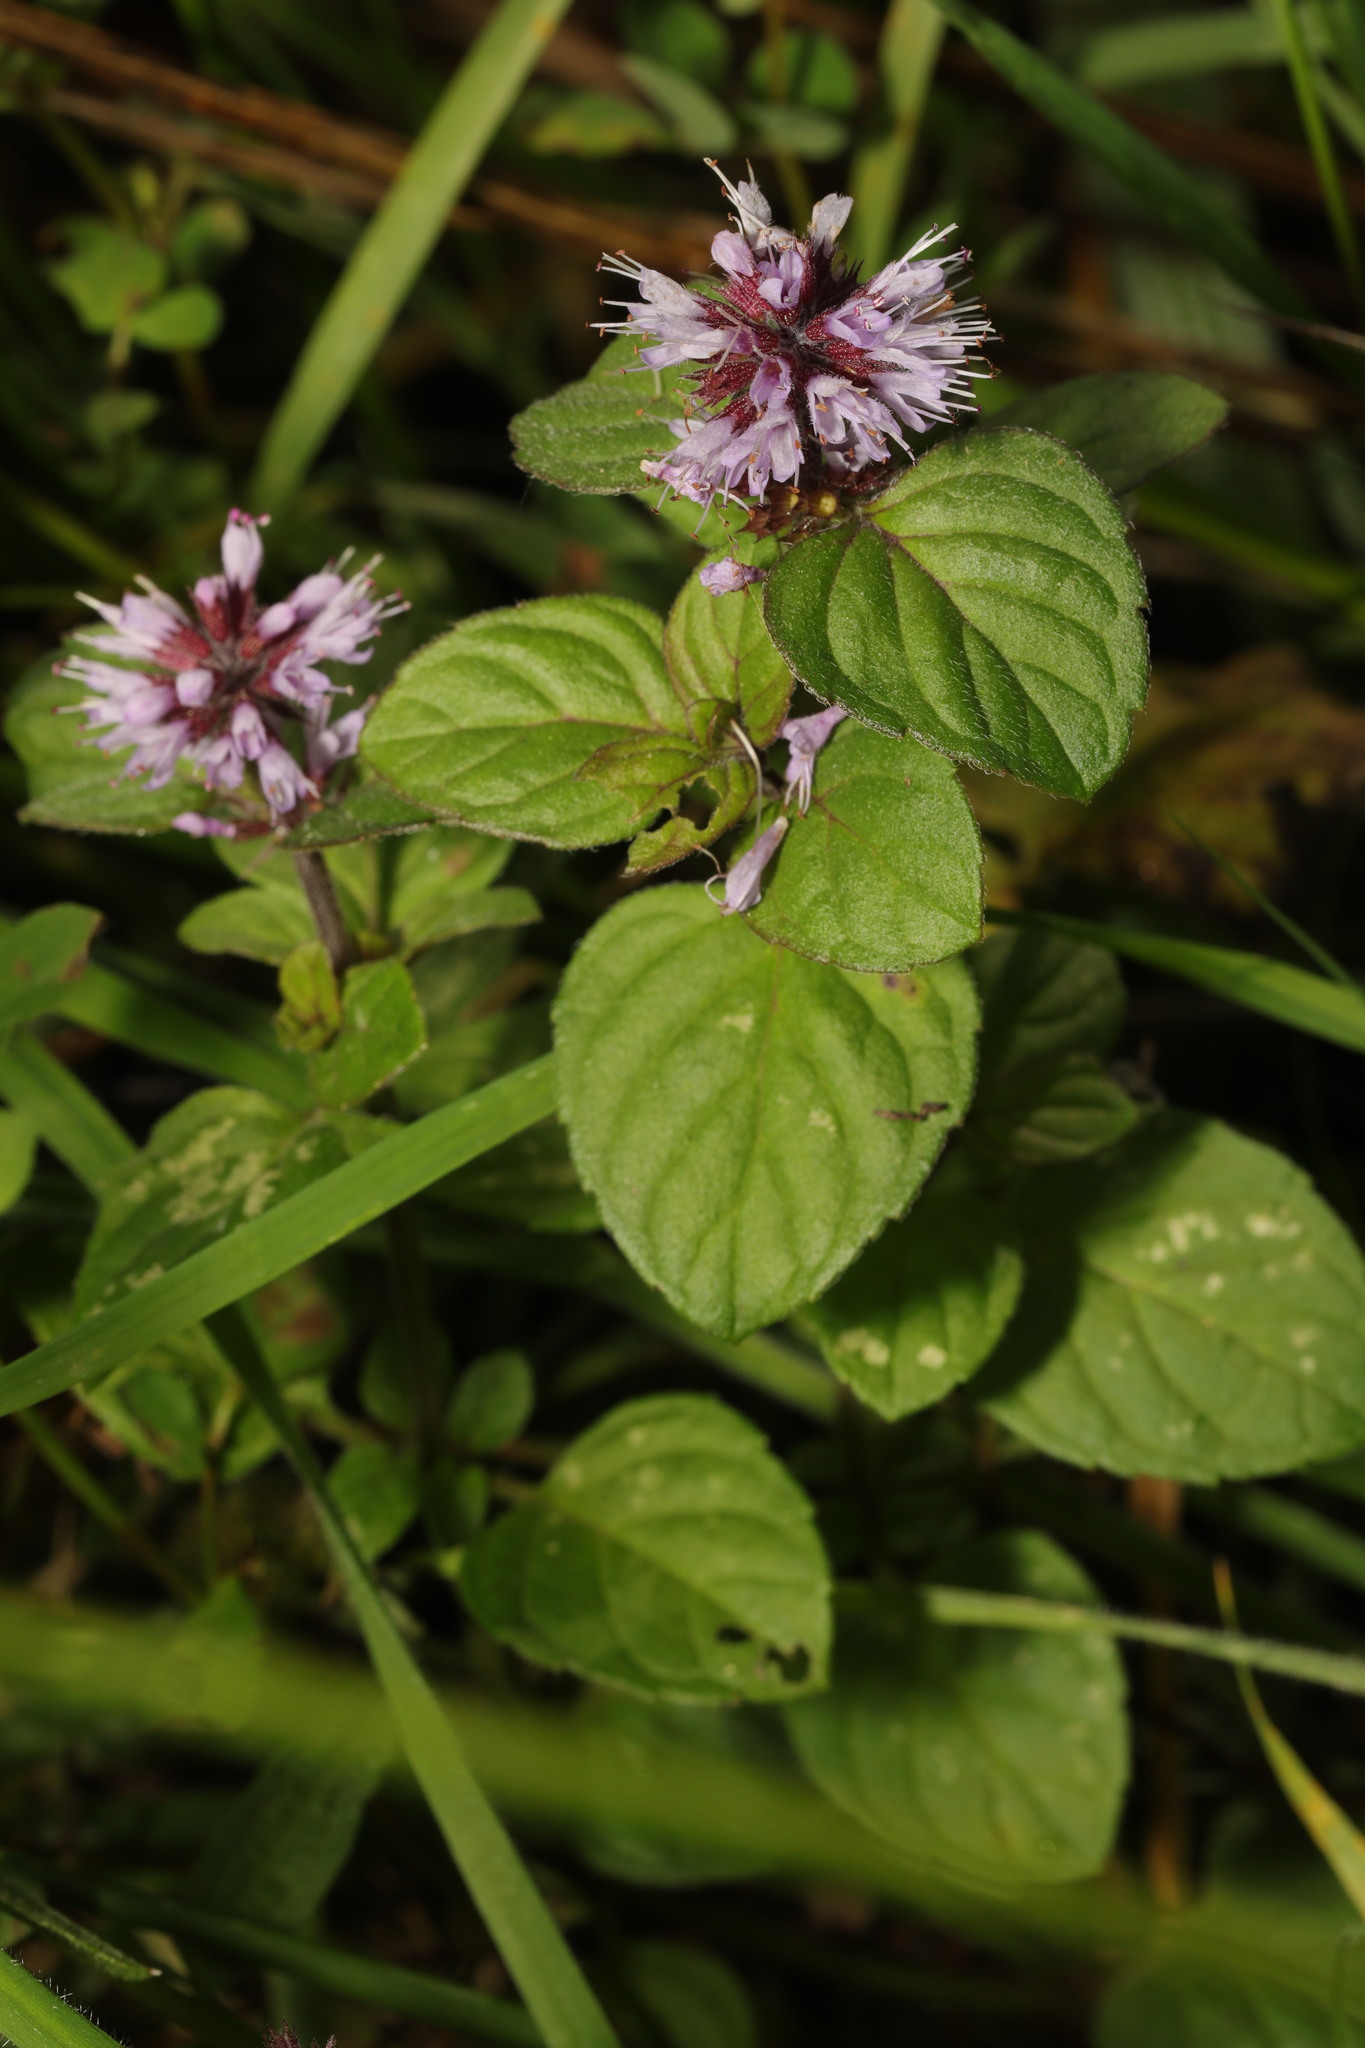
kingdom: Plantae
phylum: Tracheophyta
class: Magnoliopsida
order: Lamiales
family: Lamiaceae
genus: Mentha
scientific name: Mentha aquatica
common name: Water mint
